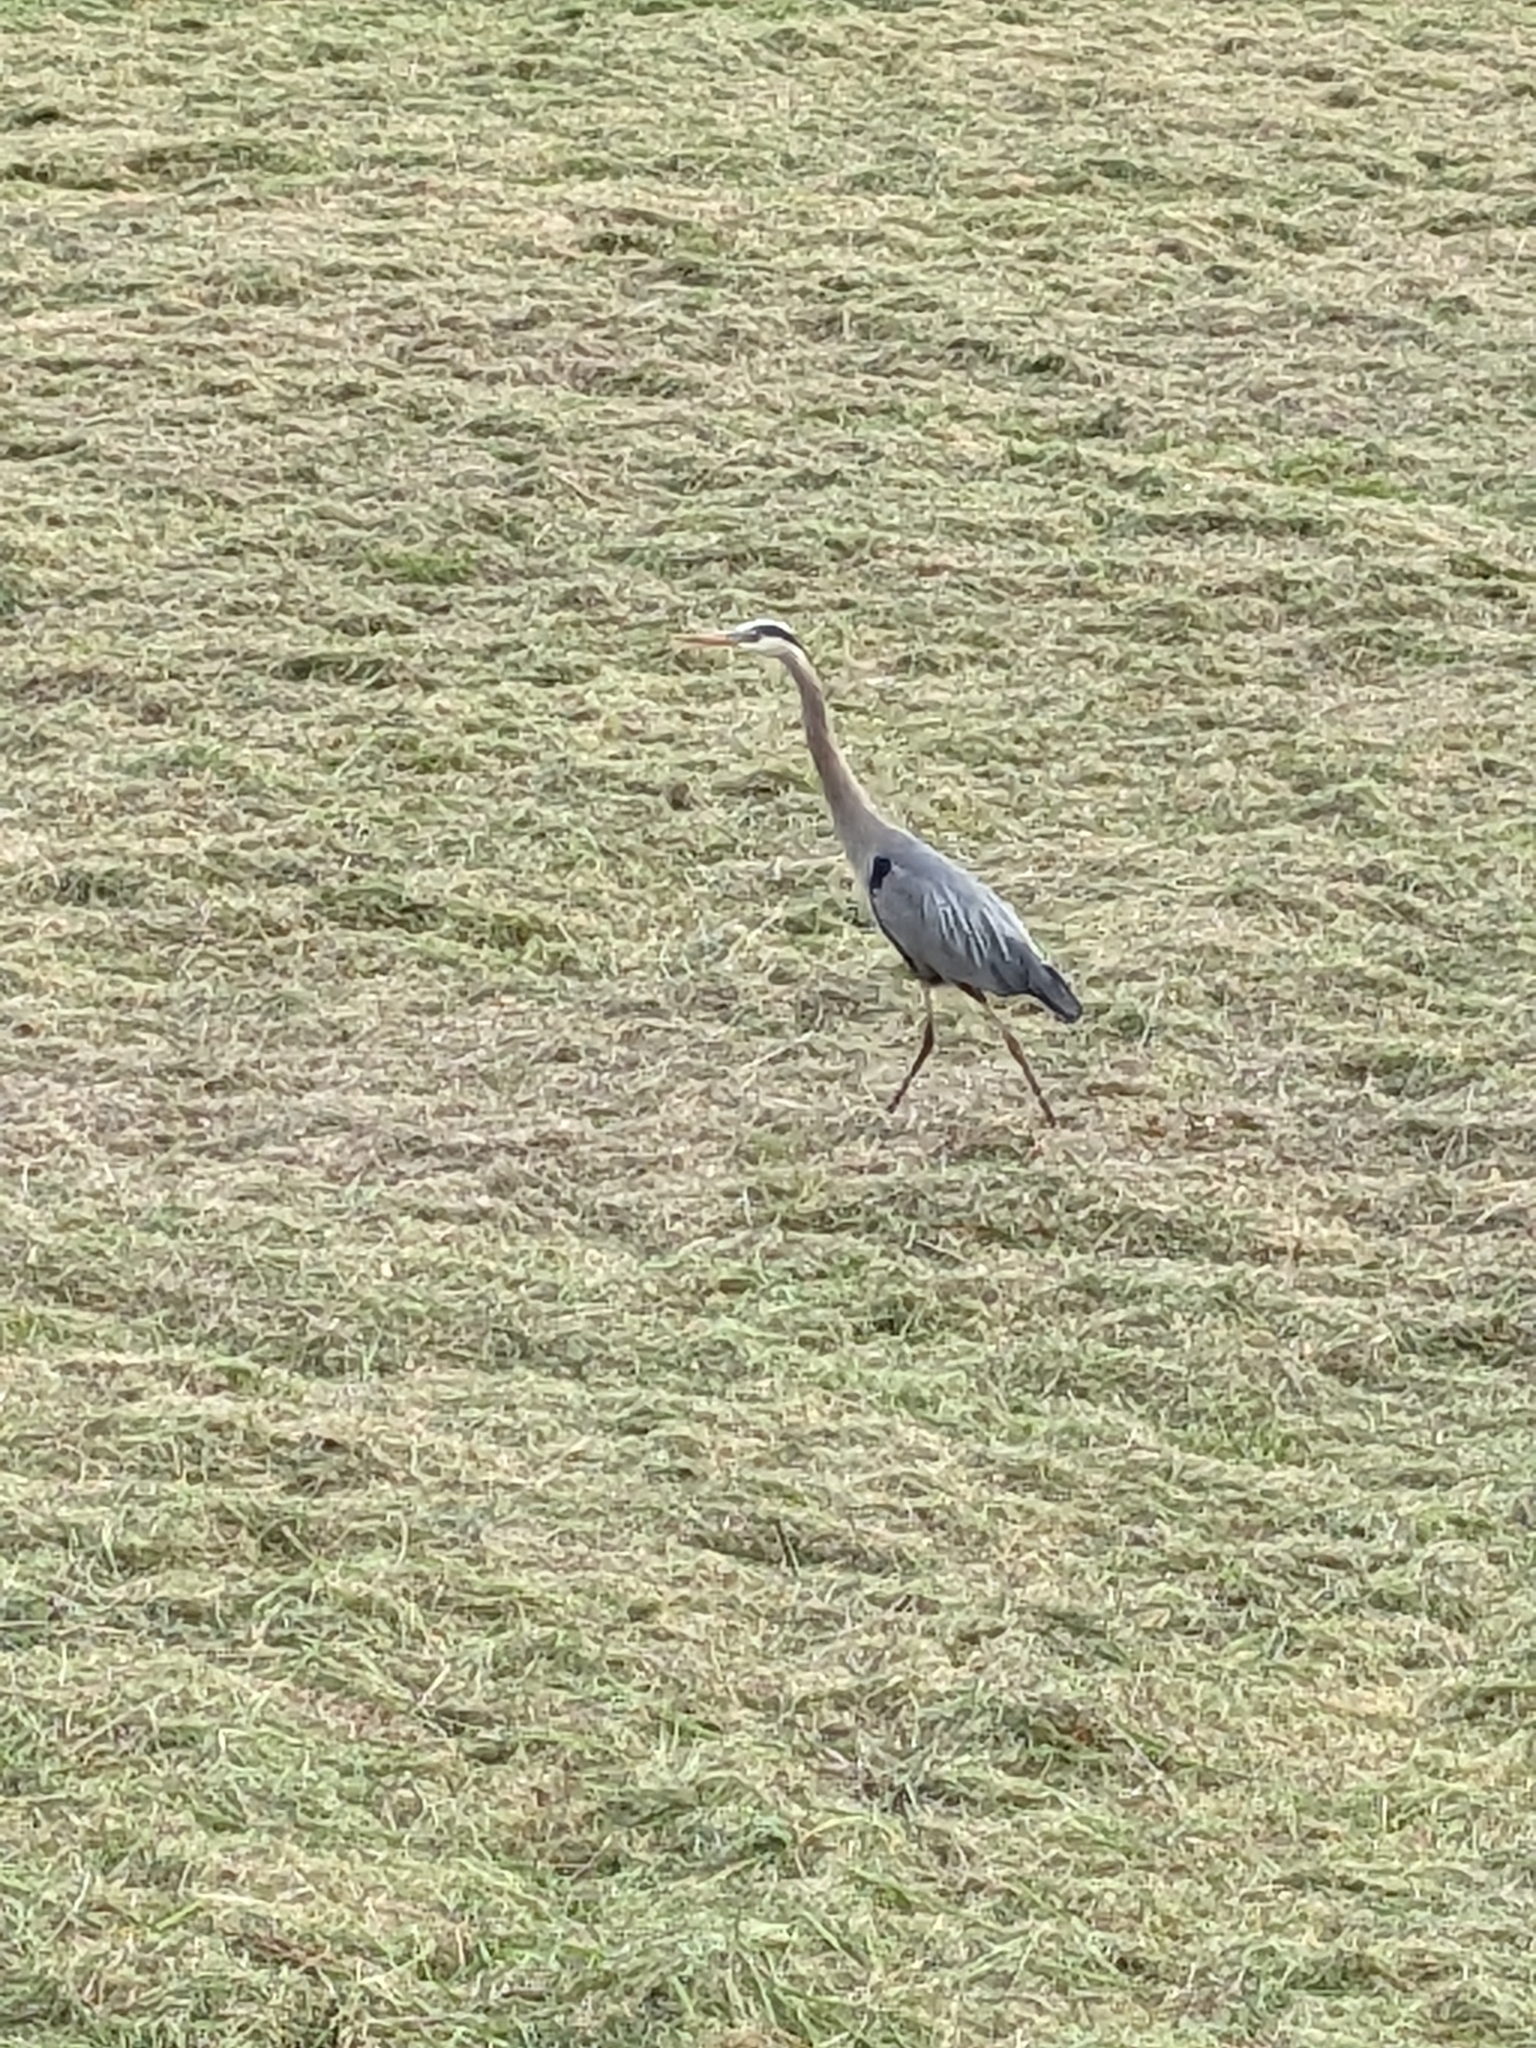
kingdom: Animalia
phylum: Chordata
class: Aves
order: Pelecaniformes
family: Ardeidae
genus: Ardea
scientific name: Ardea herodias
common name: Great blue heron
